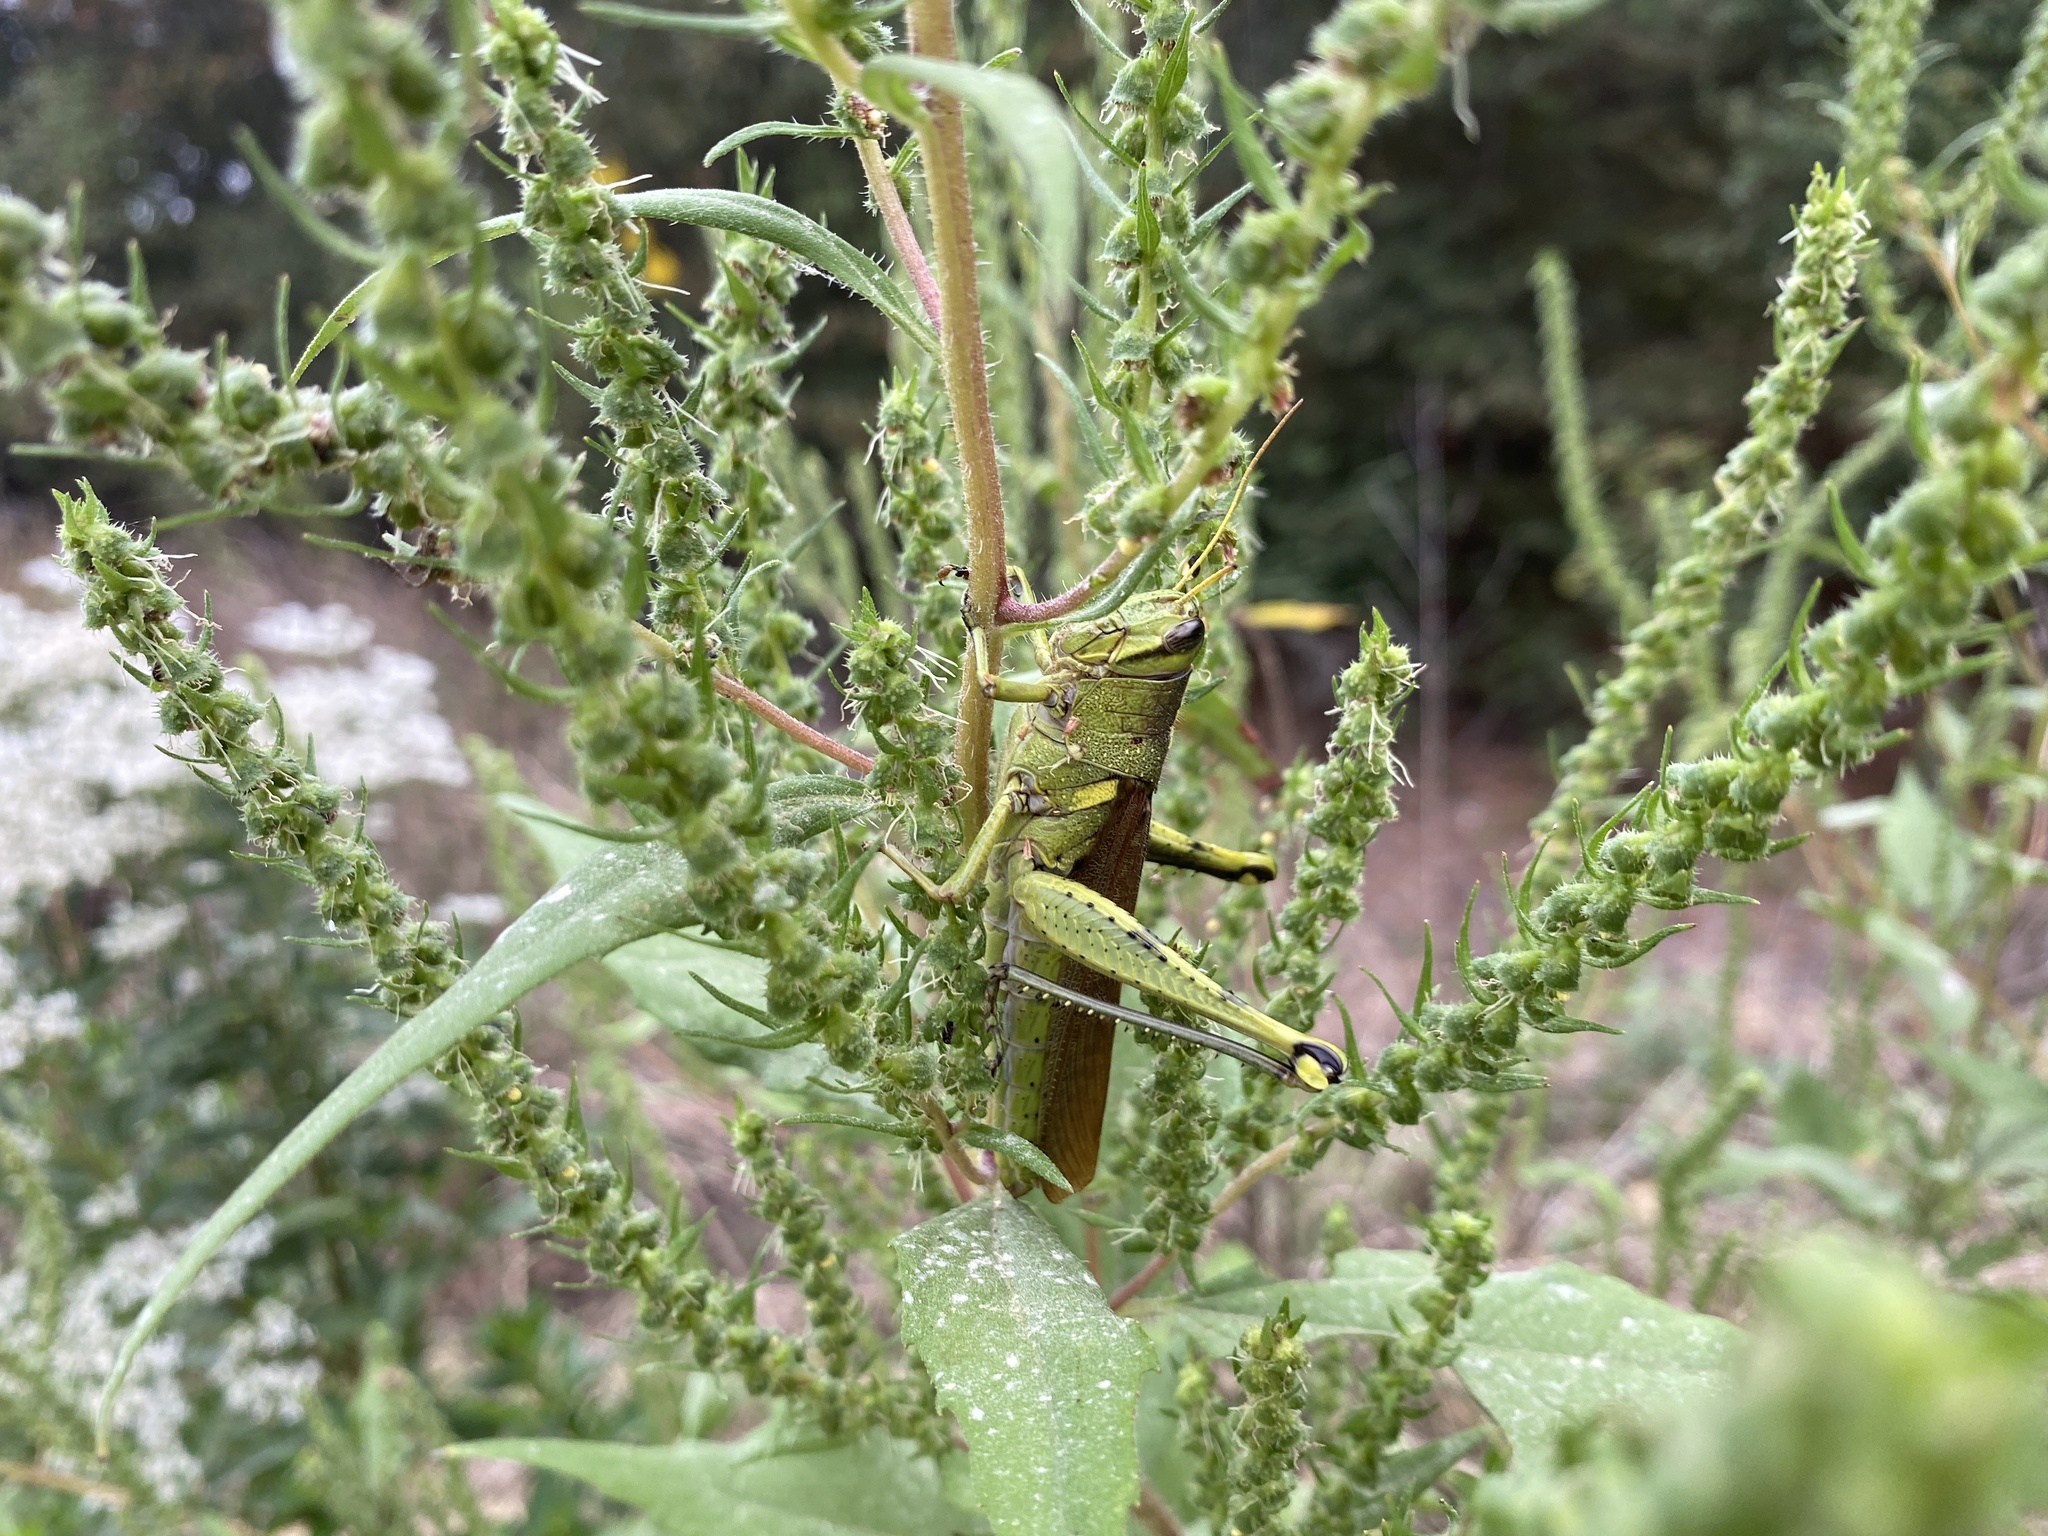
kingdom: Animalia
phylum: Arthropoda
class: Insecta
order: Orthoptera
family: Acrididae
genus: Schistocerca
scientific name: Schistocerca obscura
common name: Obscure bird grasshopper
